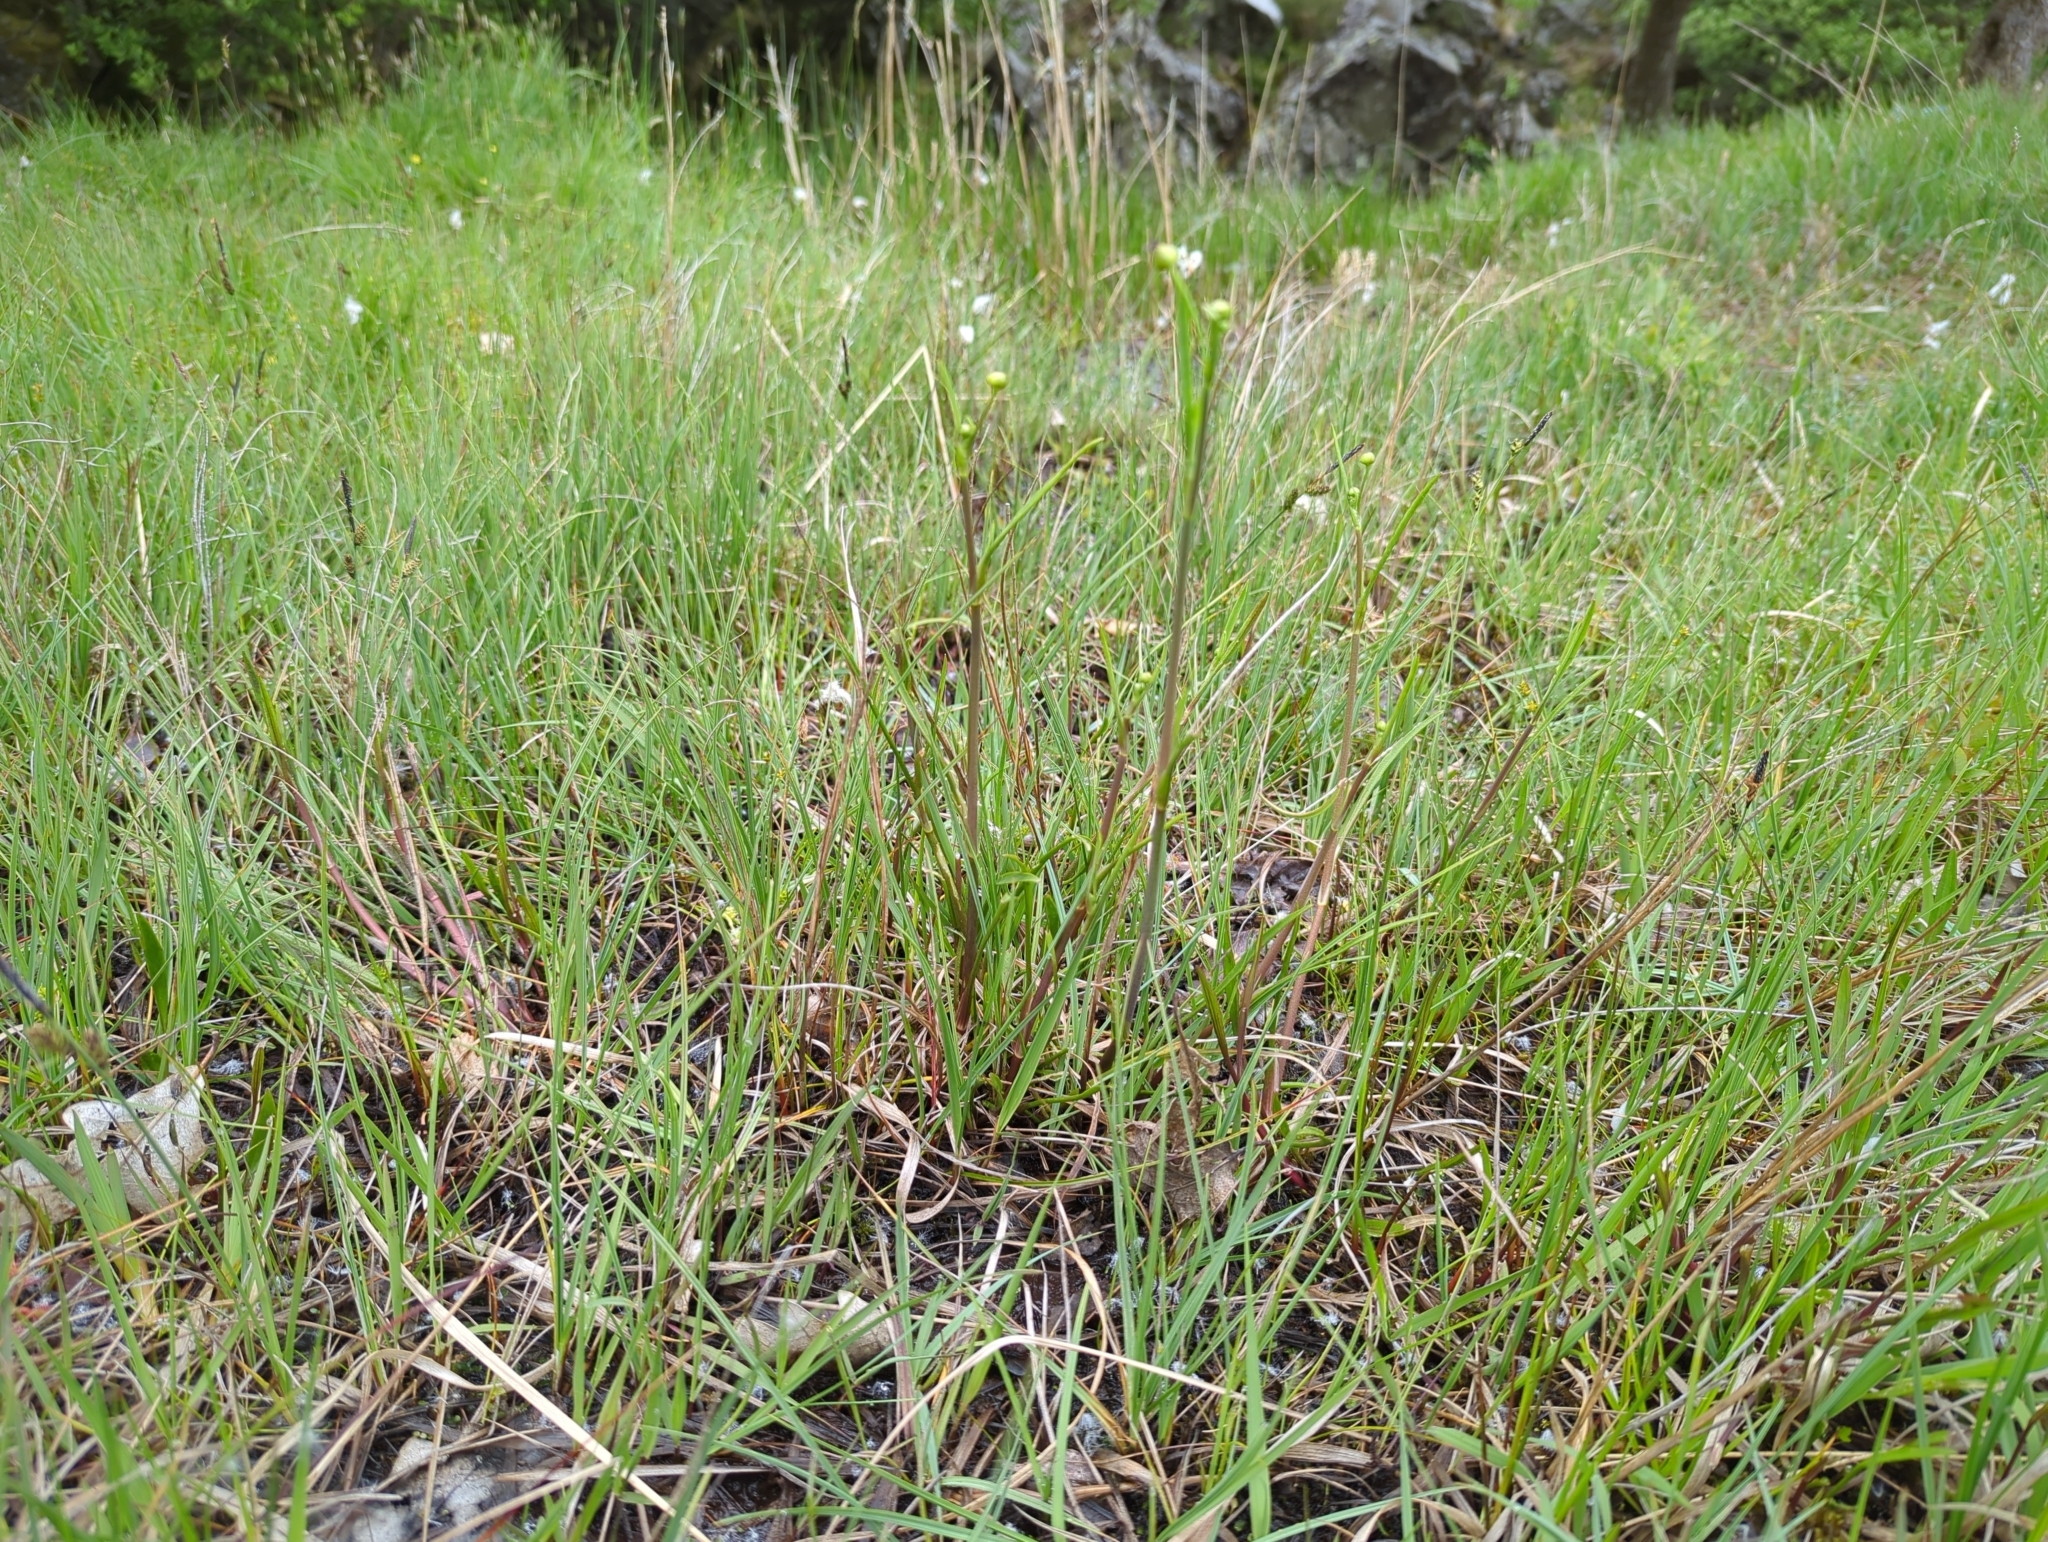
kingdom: Plantae
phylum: Tracheophyta
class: Magnoliopsida
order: Rosales
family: Rosaceae
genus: Potentilla
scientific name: Potentilla erecta
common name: Tormentil
